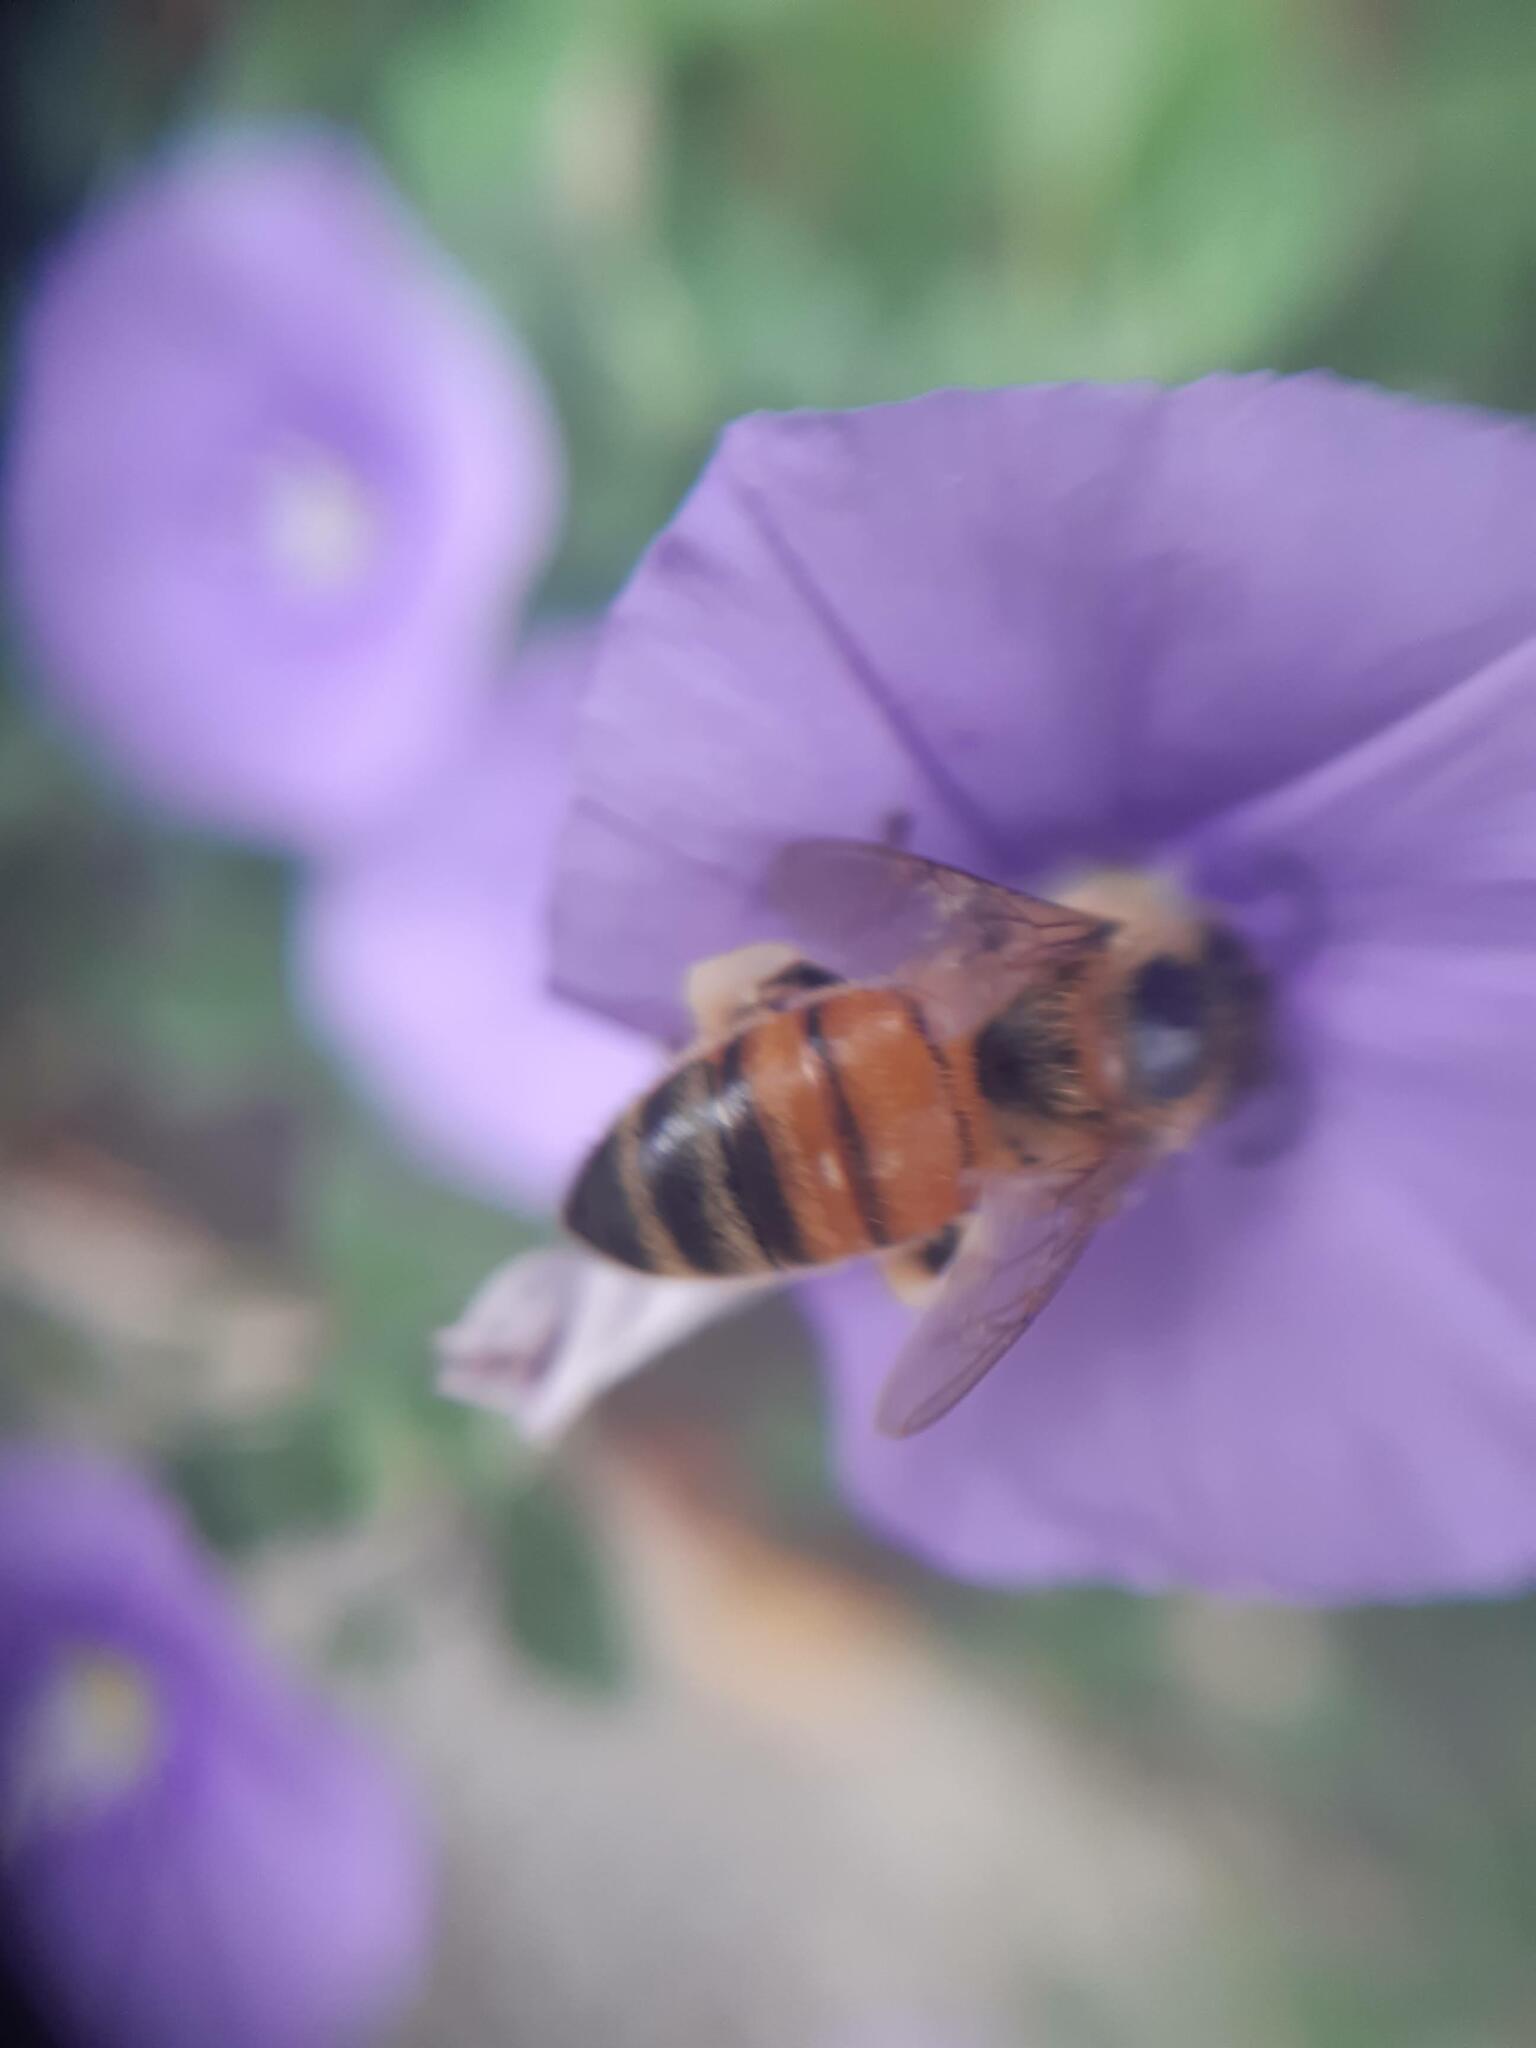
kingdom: Animalia
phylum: Arthropoda
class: Insecta
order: Hymenoptera
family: Apidae
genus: Apis
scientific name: Apis mellifera
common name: Honey bee
